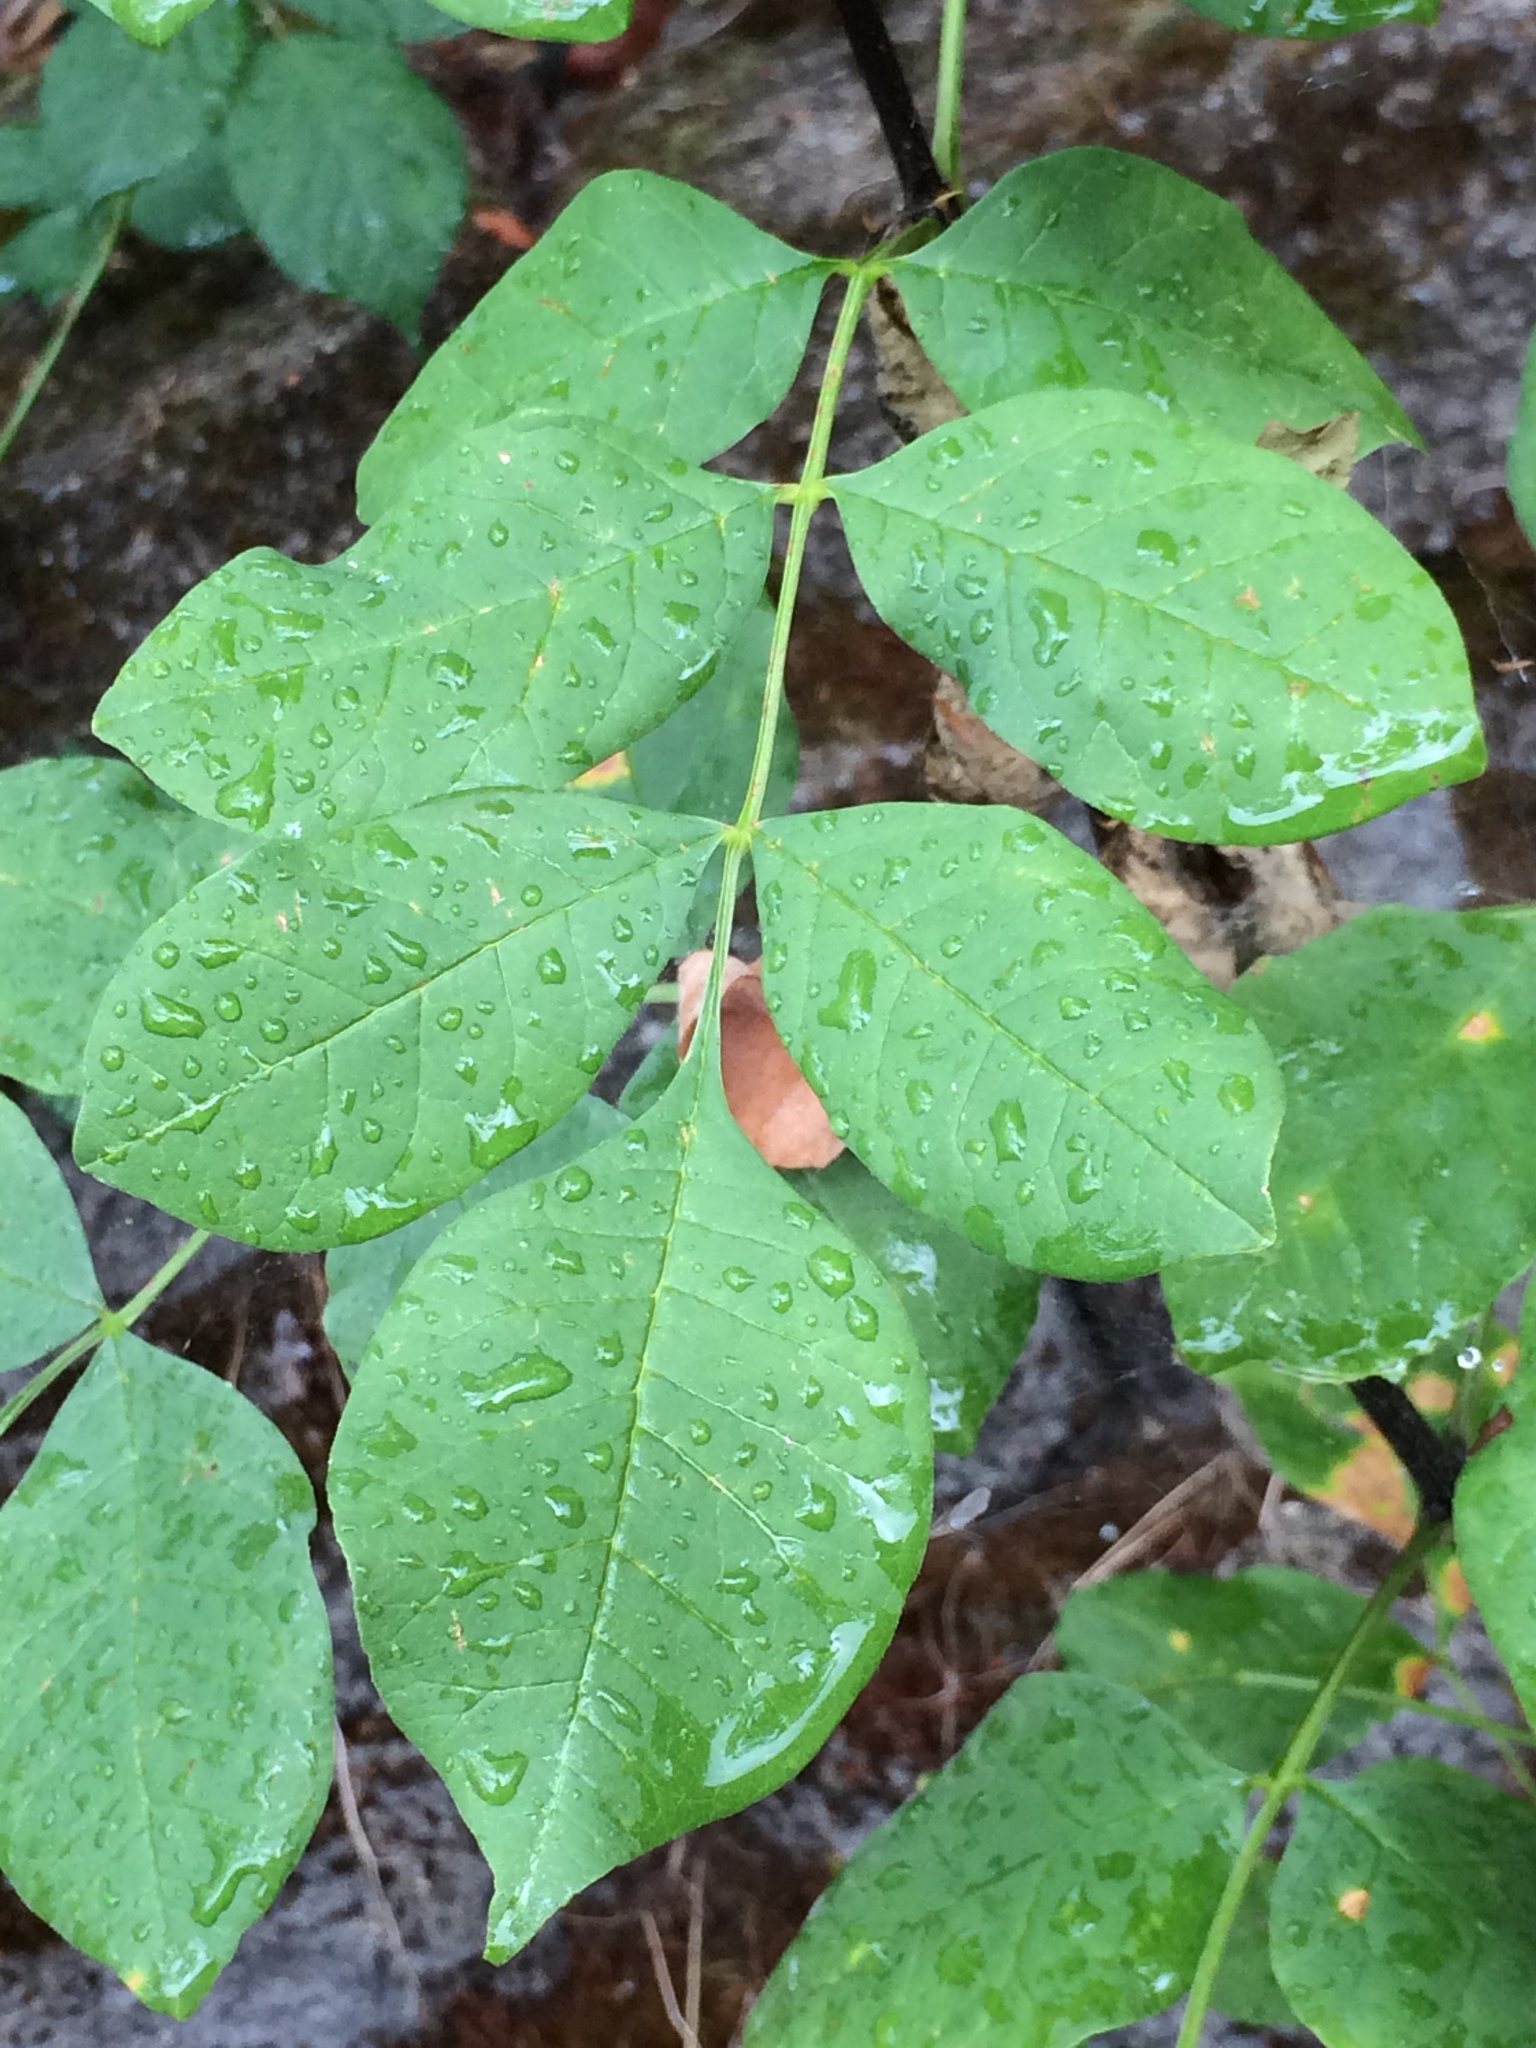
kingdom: Plantae
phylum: Tracheophyta
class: Magnoliopsida
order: Lamiales
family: Oleaceae
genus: Fraxinus
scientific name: Fraxinus latifolia
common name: Oregon ash
